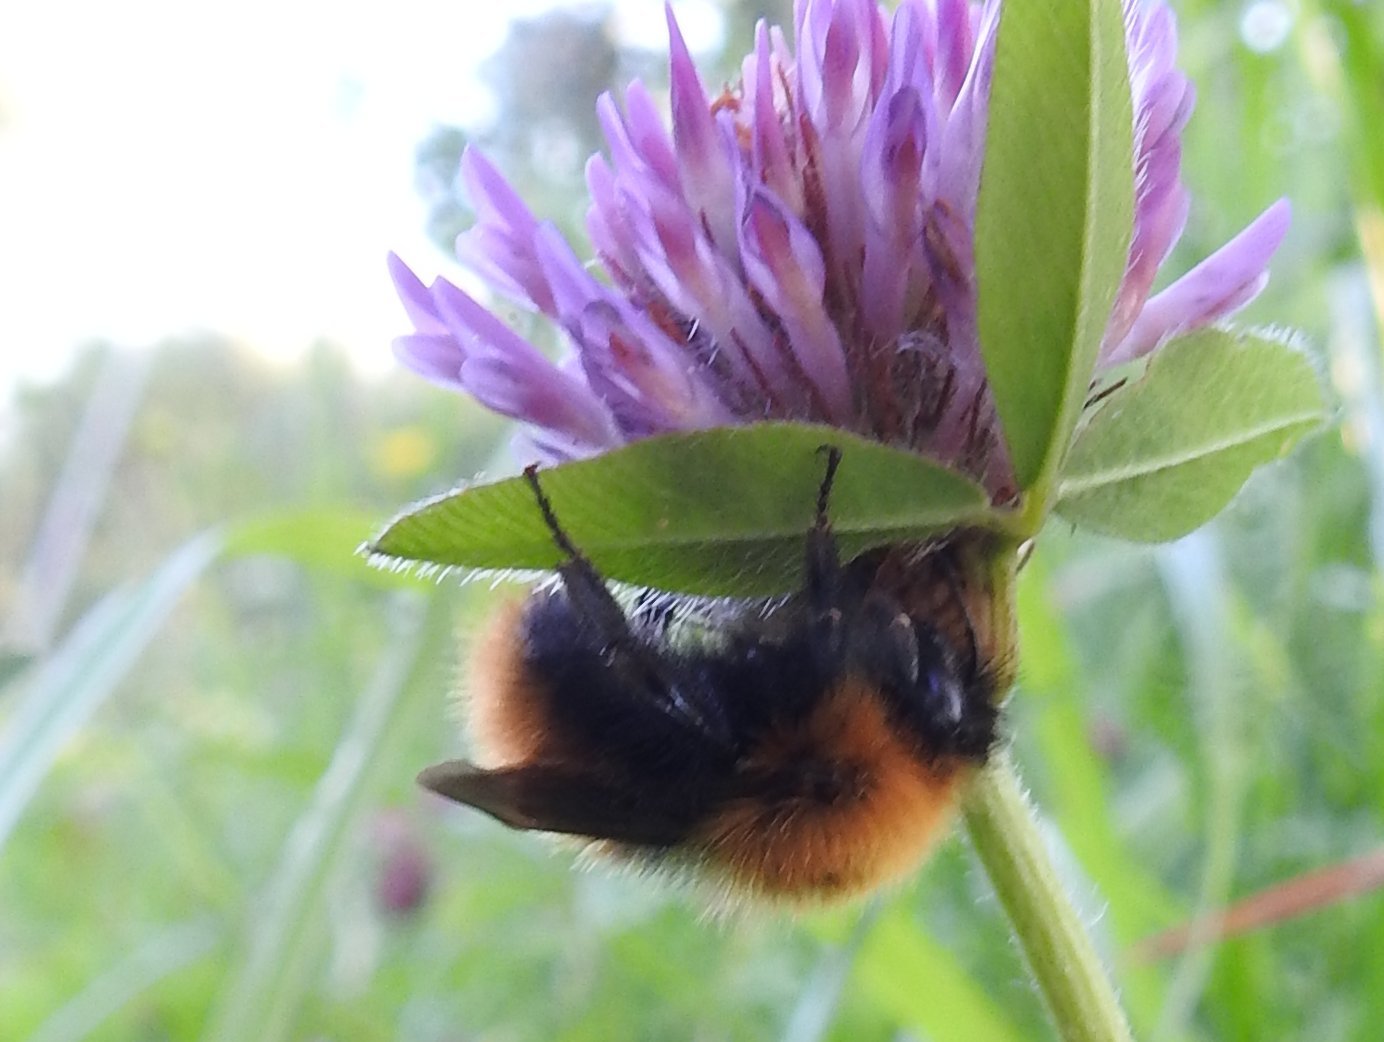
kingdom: Animalia
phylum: Arthropoda
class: Insecta
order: Hymenoptera
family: Apidae
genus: Bombus
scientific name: Bombus pascuorum
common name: Common carder bee
